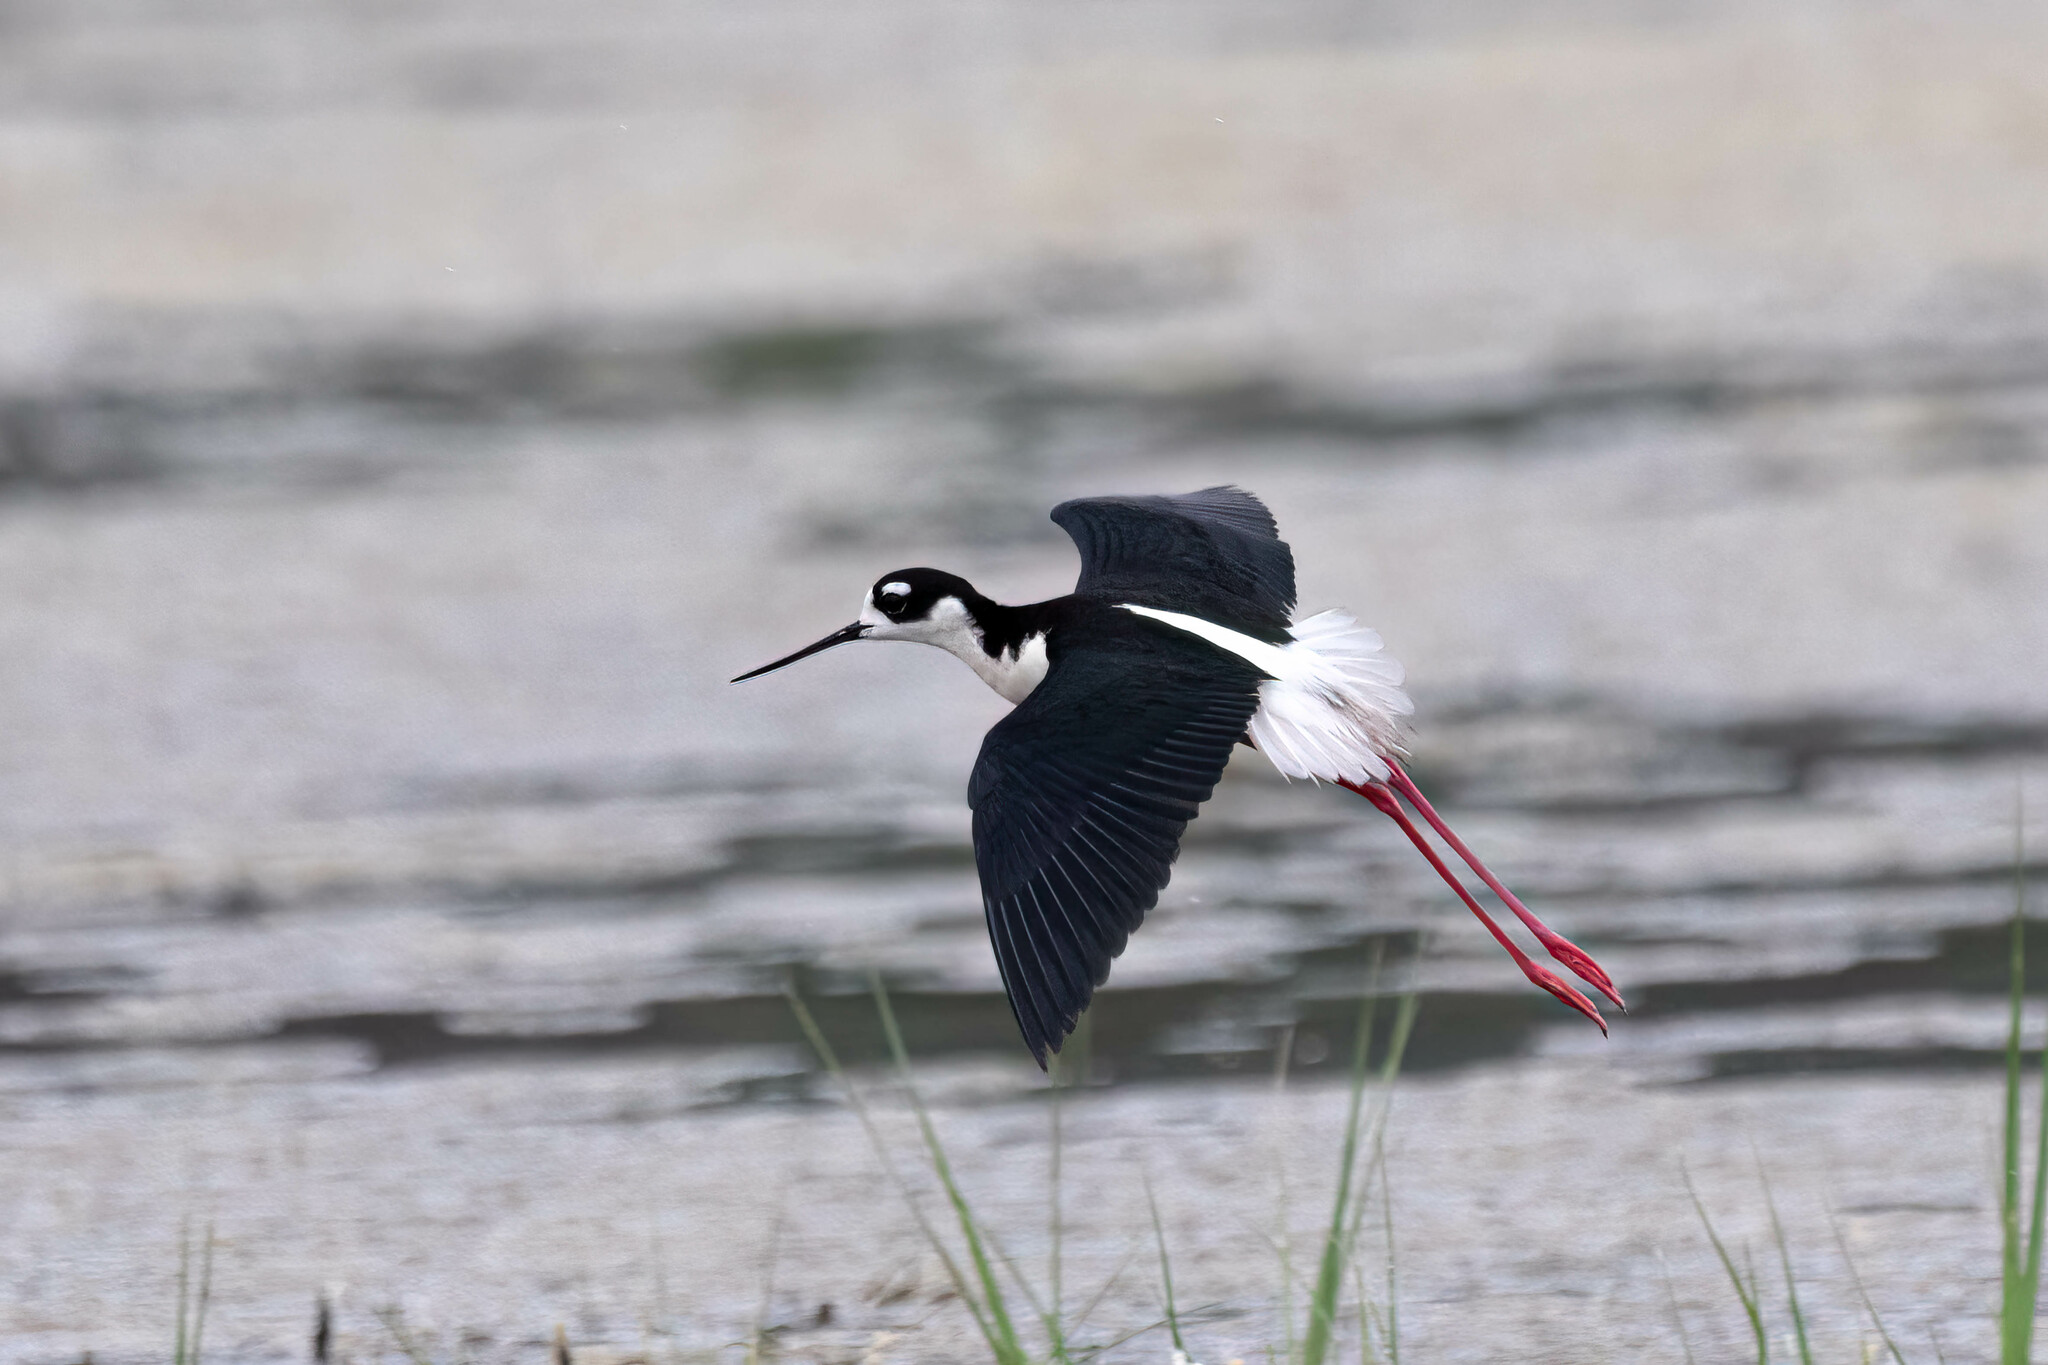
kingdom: Animalia
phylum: Chordata
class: Aves
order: Charadriiformes
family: Recurvirostridae
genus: Himantopus
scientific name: Himantopus mexicanus
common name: Black-necked stilt
